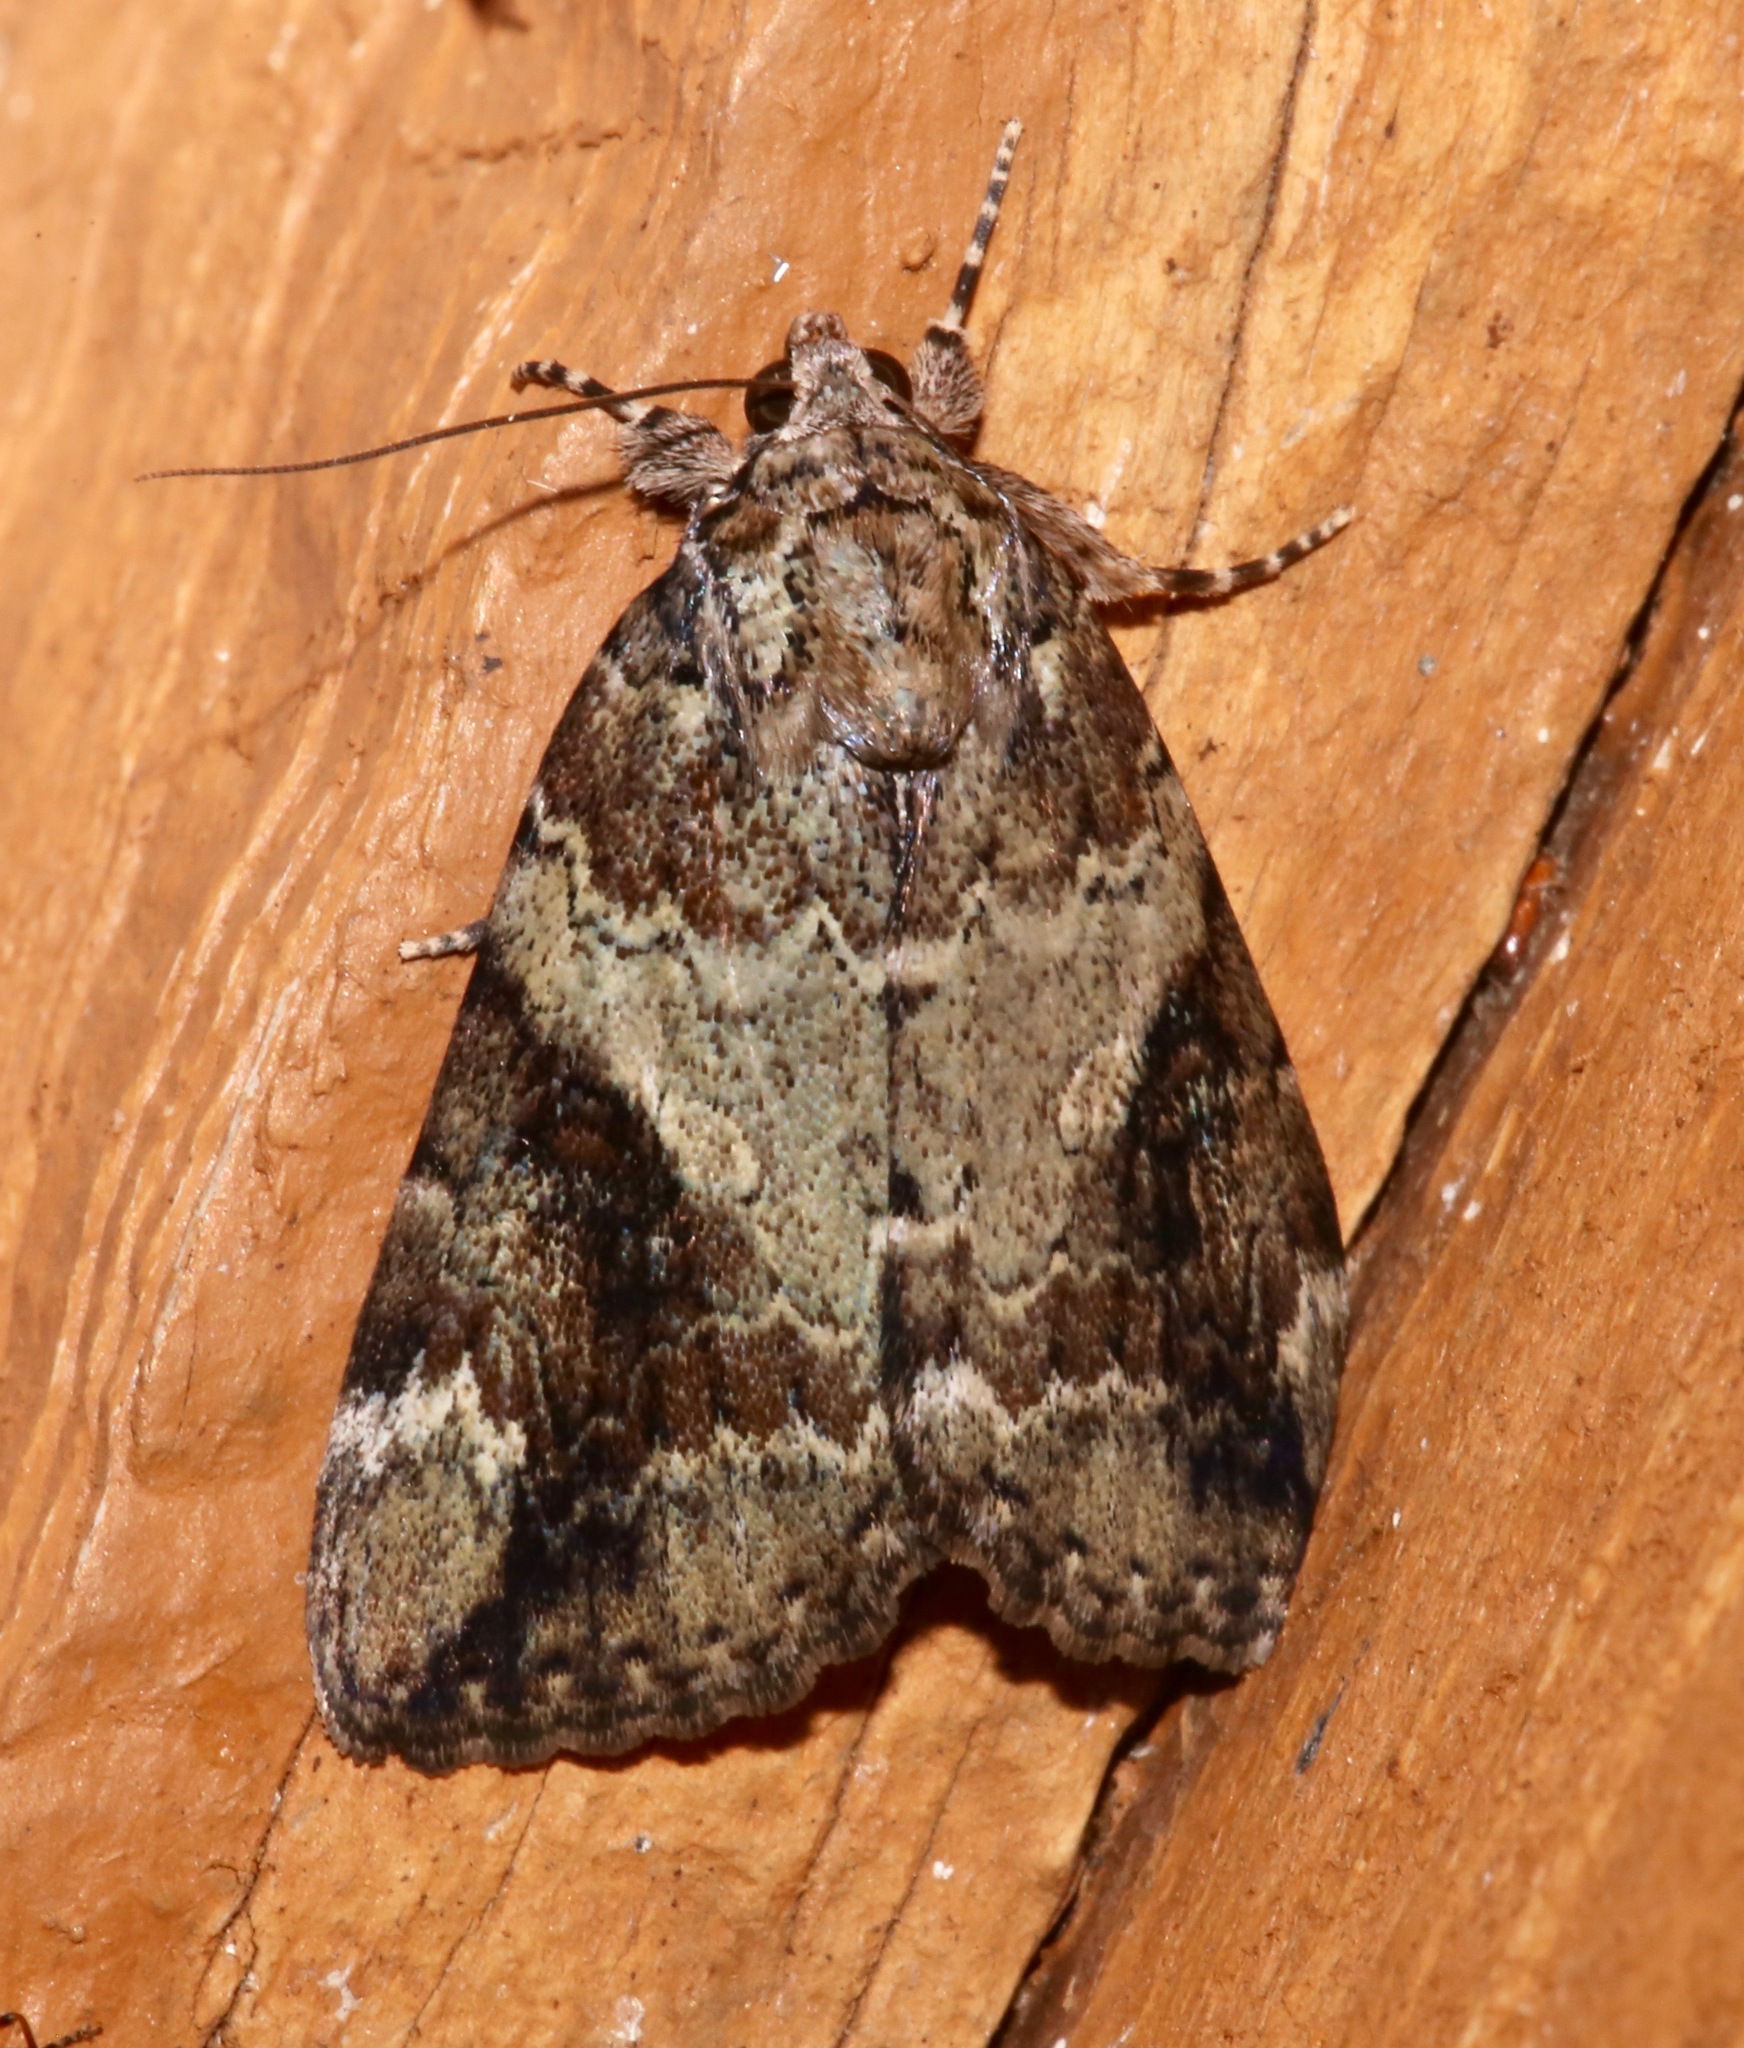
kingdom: Animalia
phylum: Arthropoda
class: Insecta
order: Lepidoptera
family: Erebidae
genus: Catocala
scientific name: Catocala micronympha
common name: Little nymph underwing
